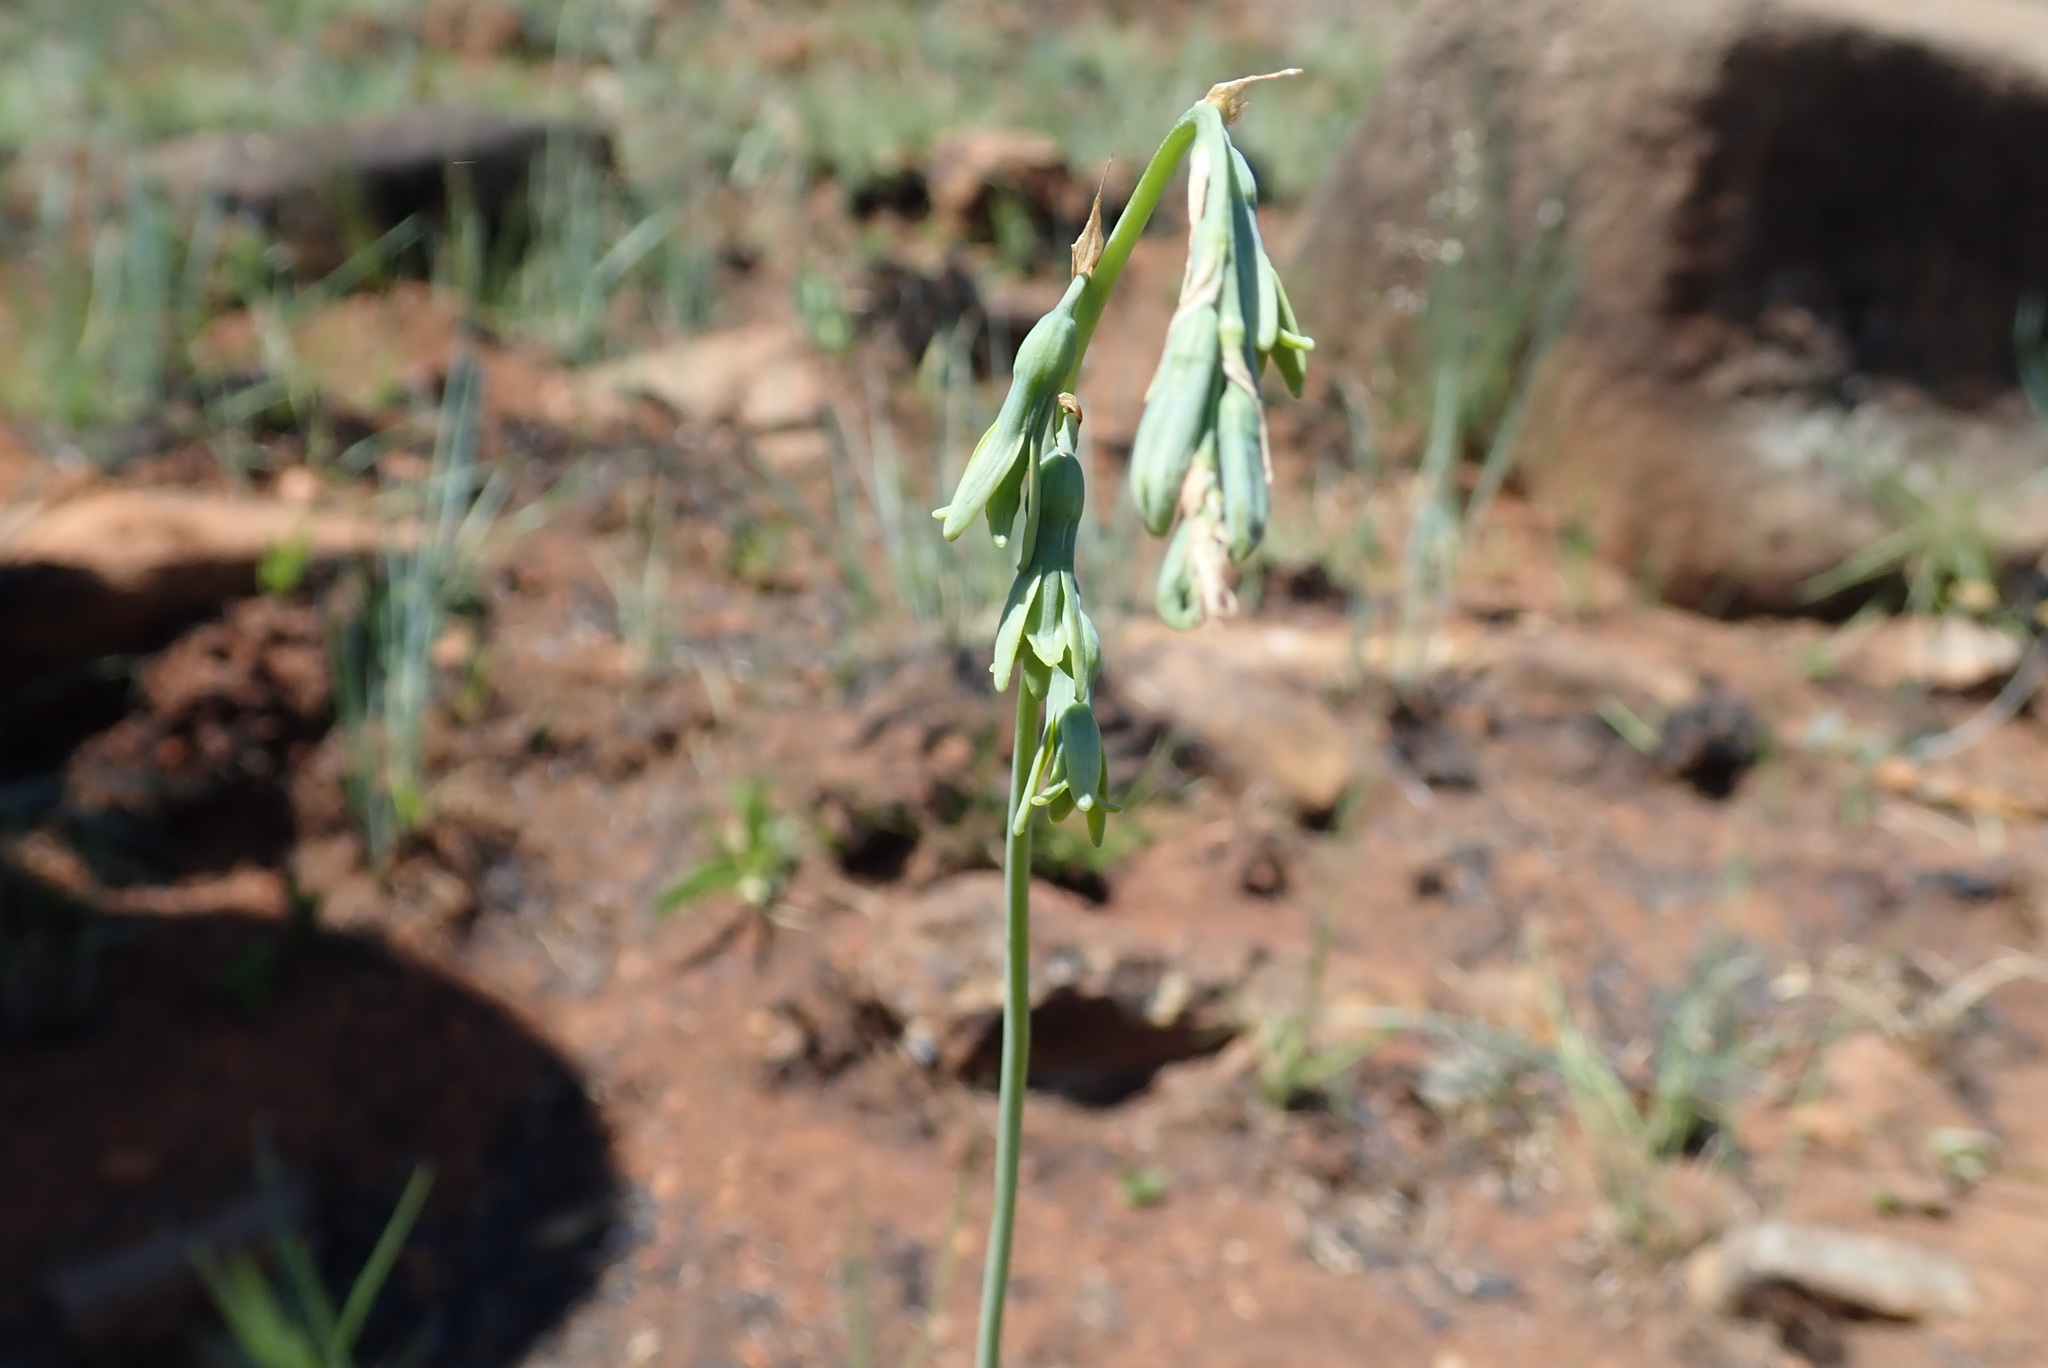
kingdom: Plantae
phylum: Tracheophyta
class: Liliopsida
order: Asparagales
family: Asparagaceae
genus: Dipcadi
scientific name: Dipcadi marlothii
